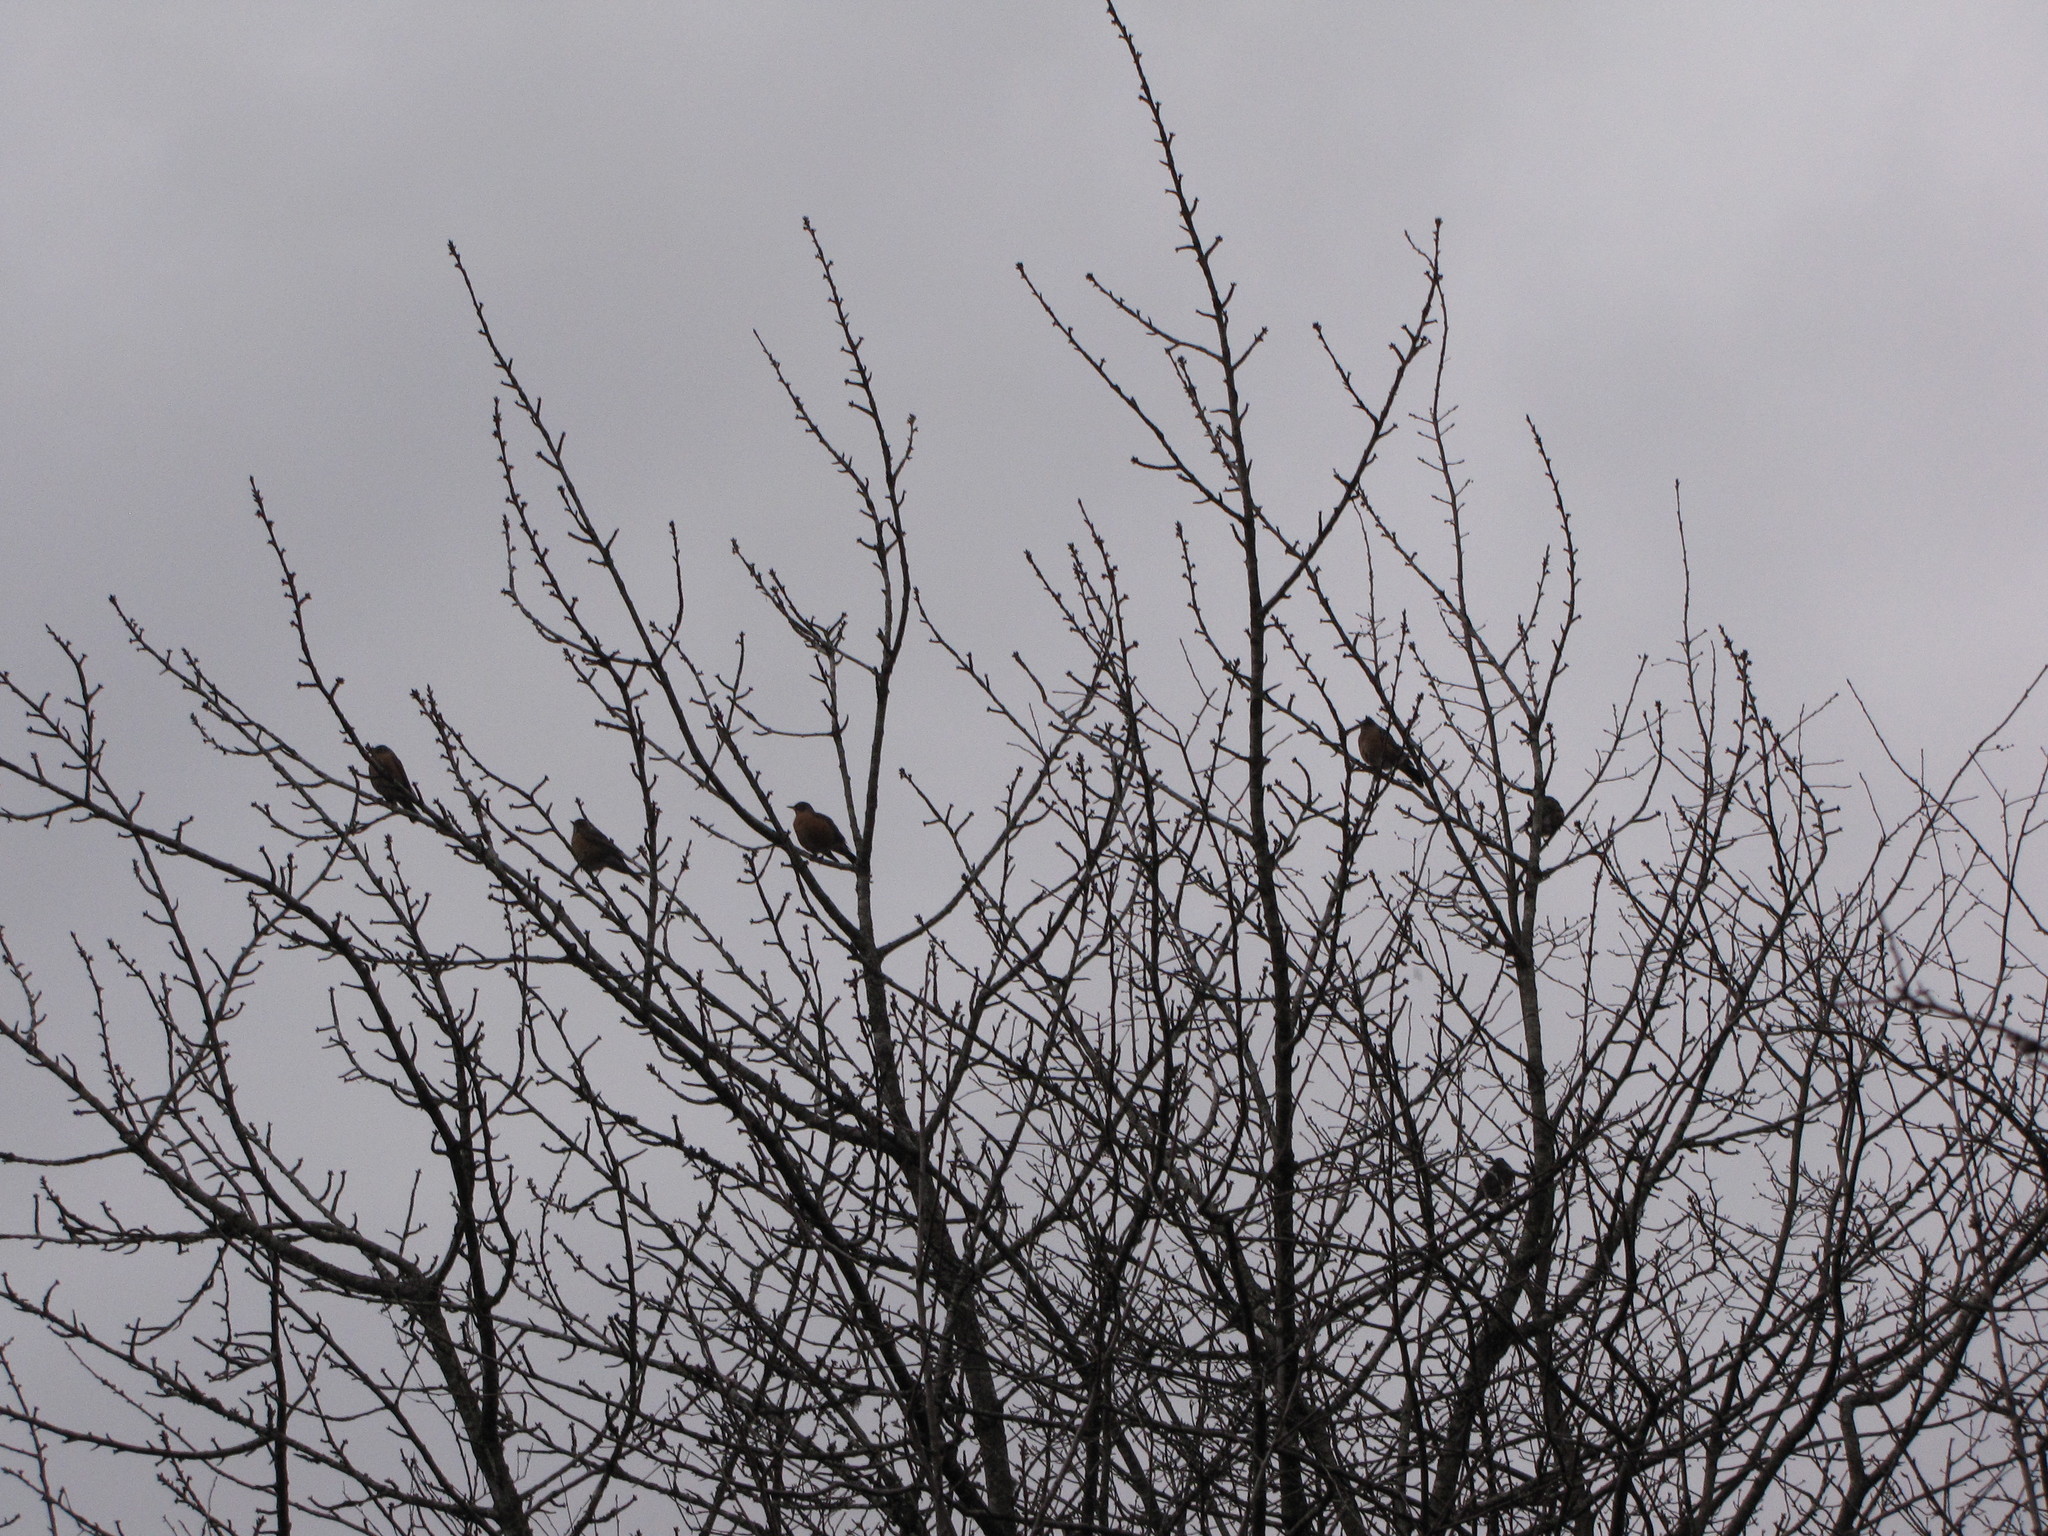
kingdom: Animalia
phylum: Chordata
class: Aves
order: Passeriformes
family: Turdidae
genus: Turdus
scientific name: Turdus migratorius
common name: American robin
